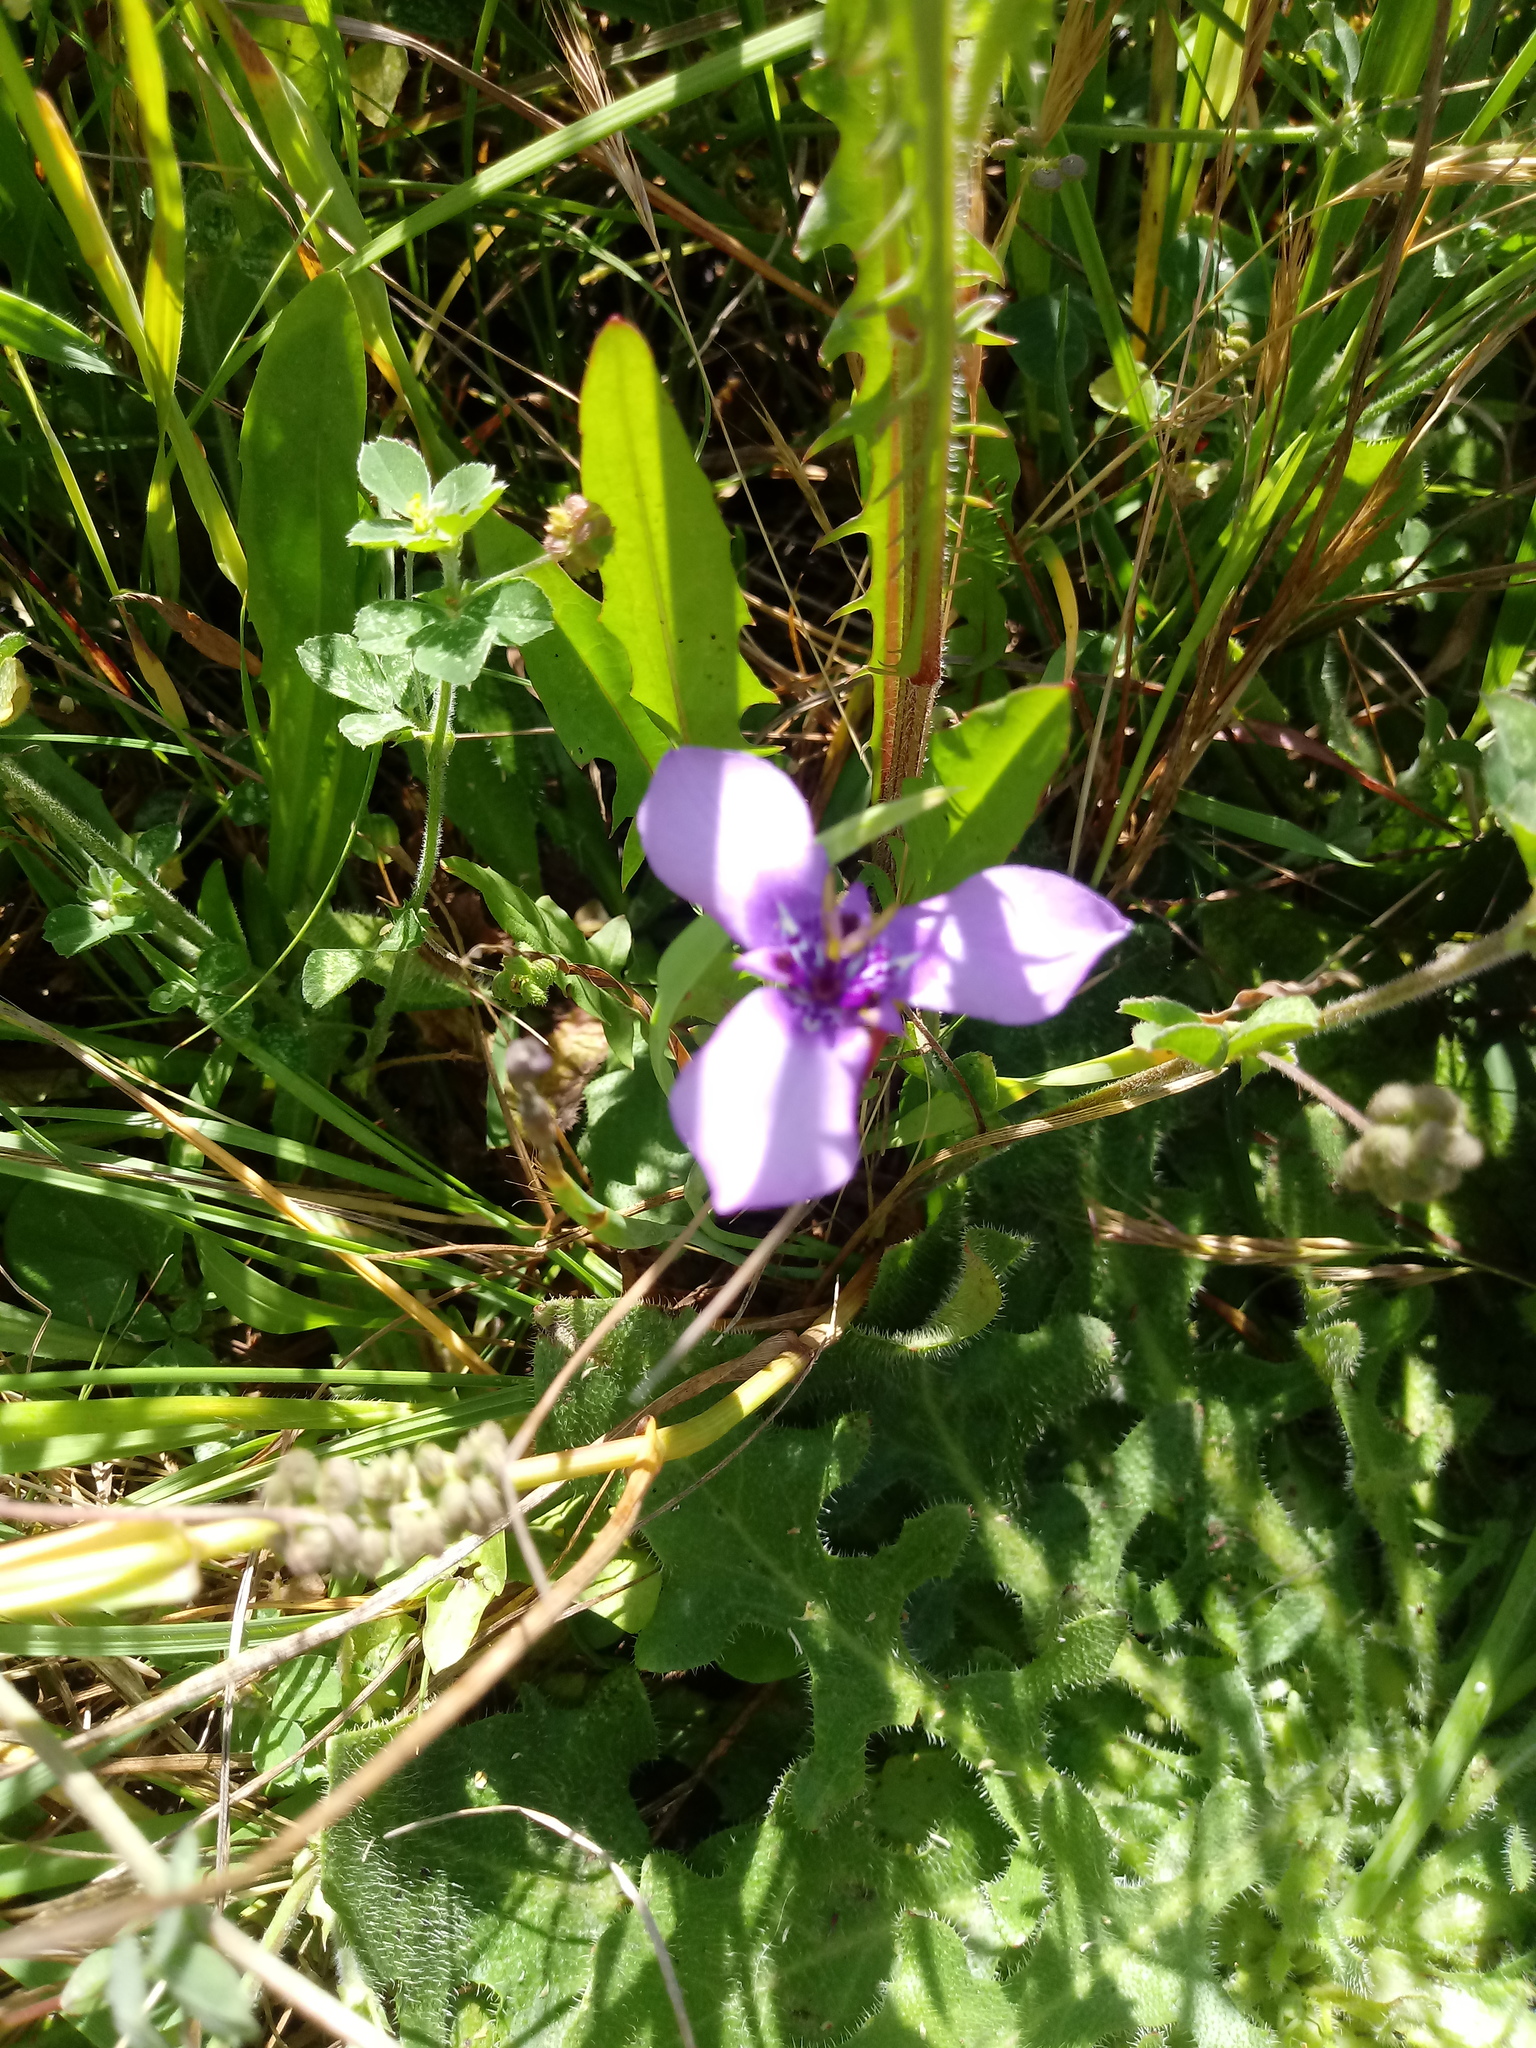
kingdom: Plantae
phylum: Tracheophyta
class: Liliopsida
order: Asparagales
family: Iridaceae
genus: Herbertia
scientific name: Herbertia lahue
